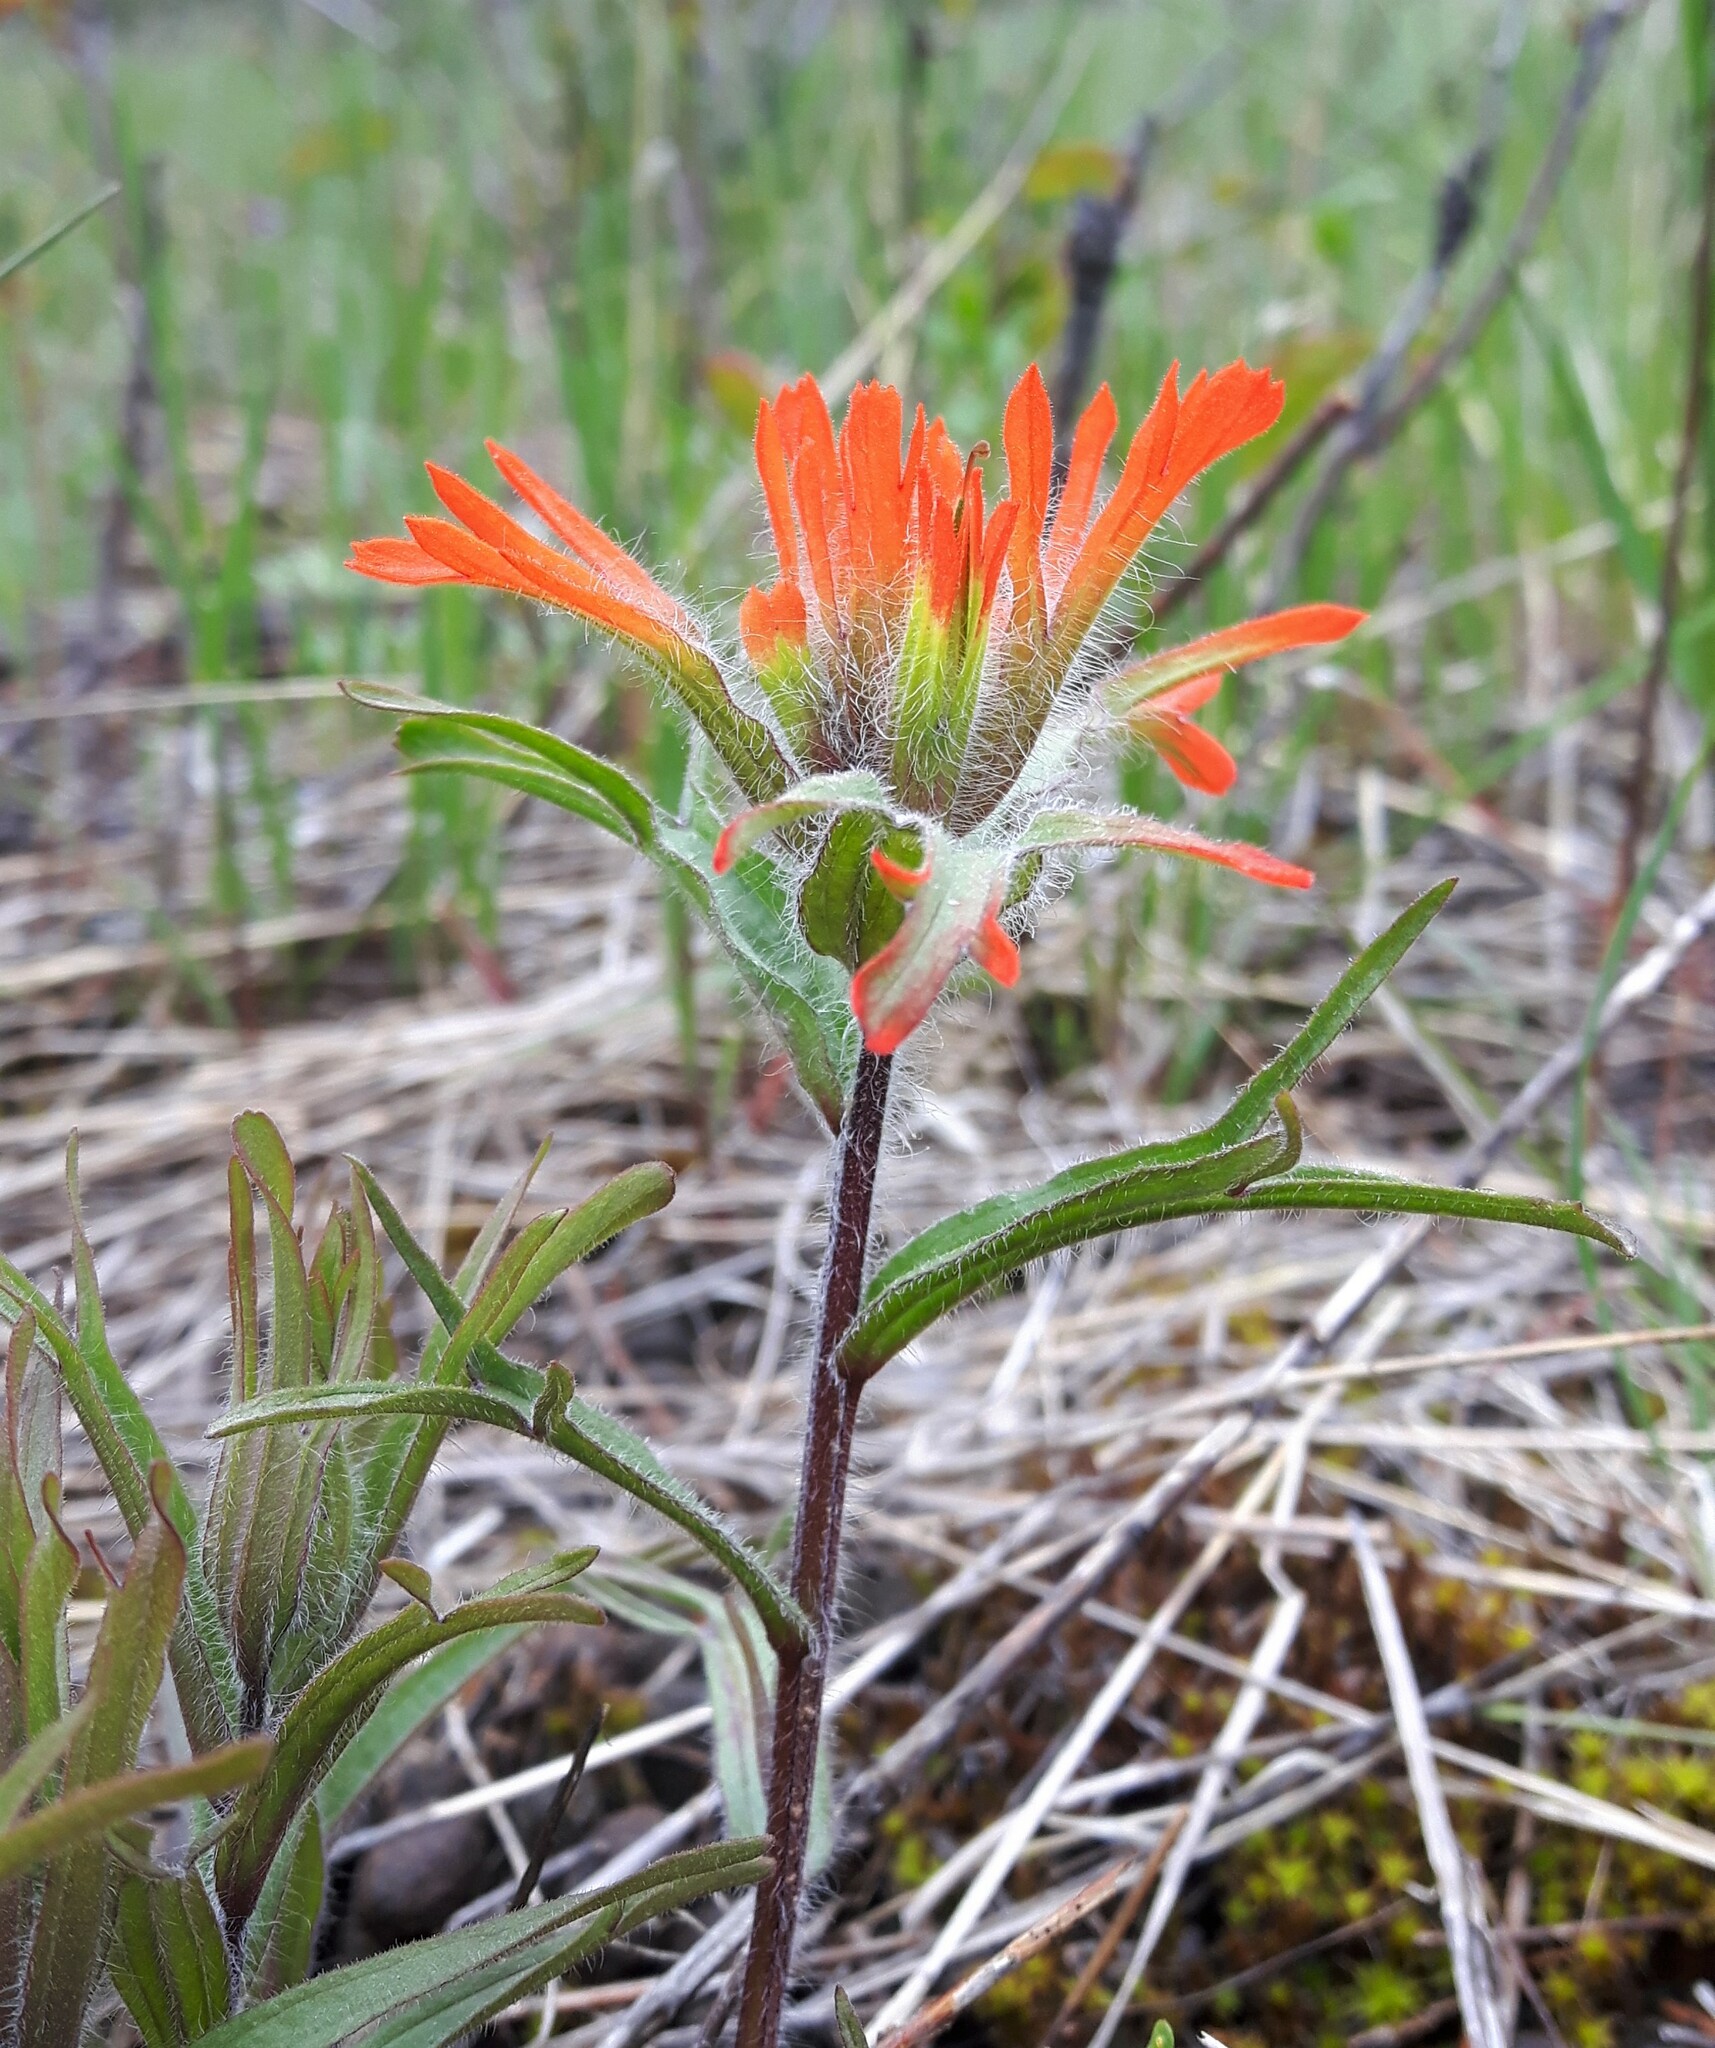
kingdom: Plantae
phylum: Tracheophyta
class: Magnoliopsida
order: Lamiales
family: Orobanchaceae
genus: Castilleja
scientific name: Castilleja hispida
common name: Bristly paintbrush
